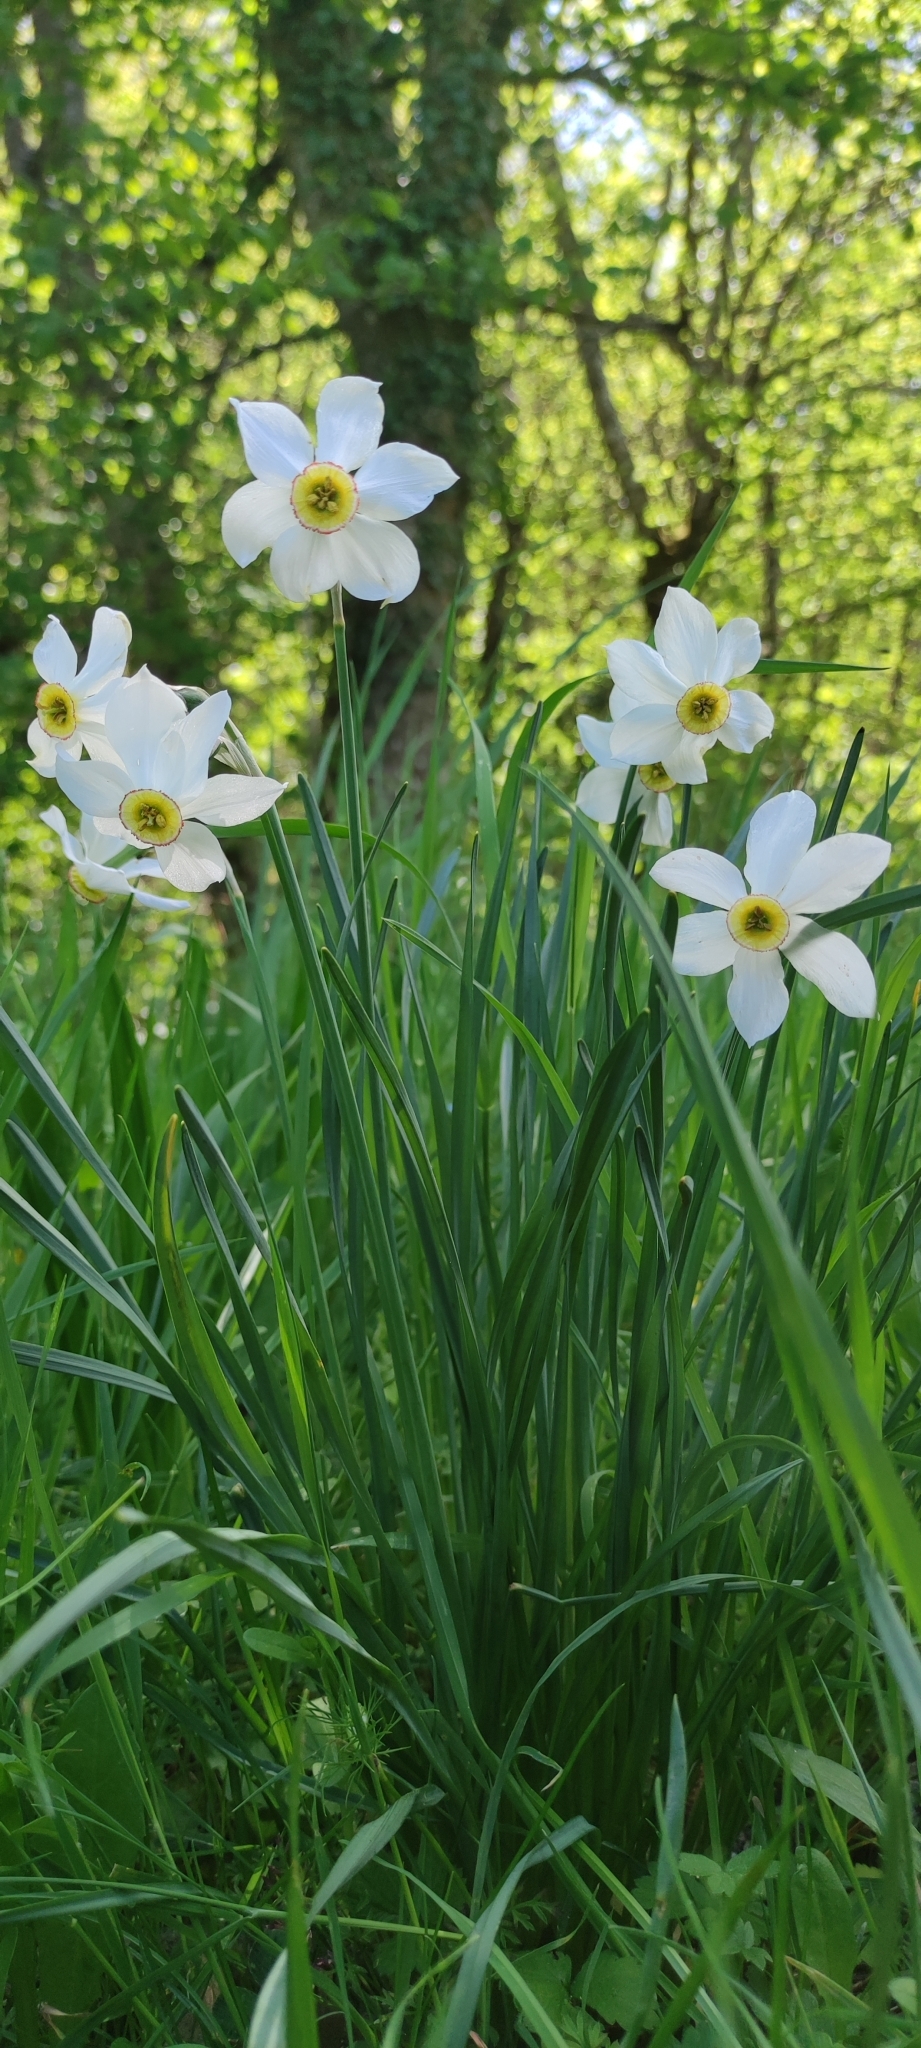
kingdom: Plantae
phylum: Tracheophyta
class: Liliopsida
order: Asparagales
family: Amaryllidaceae
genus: Narcissus
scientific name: Narcissus poeticus
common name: Pheasant's-eye daffodil
